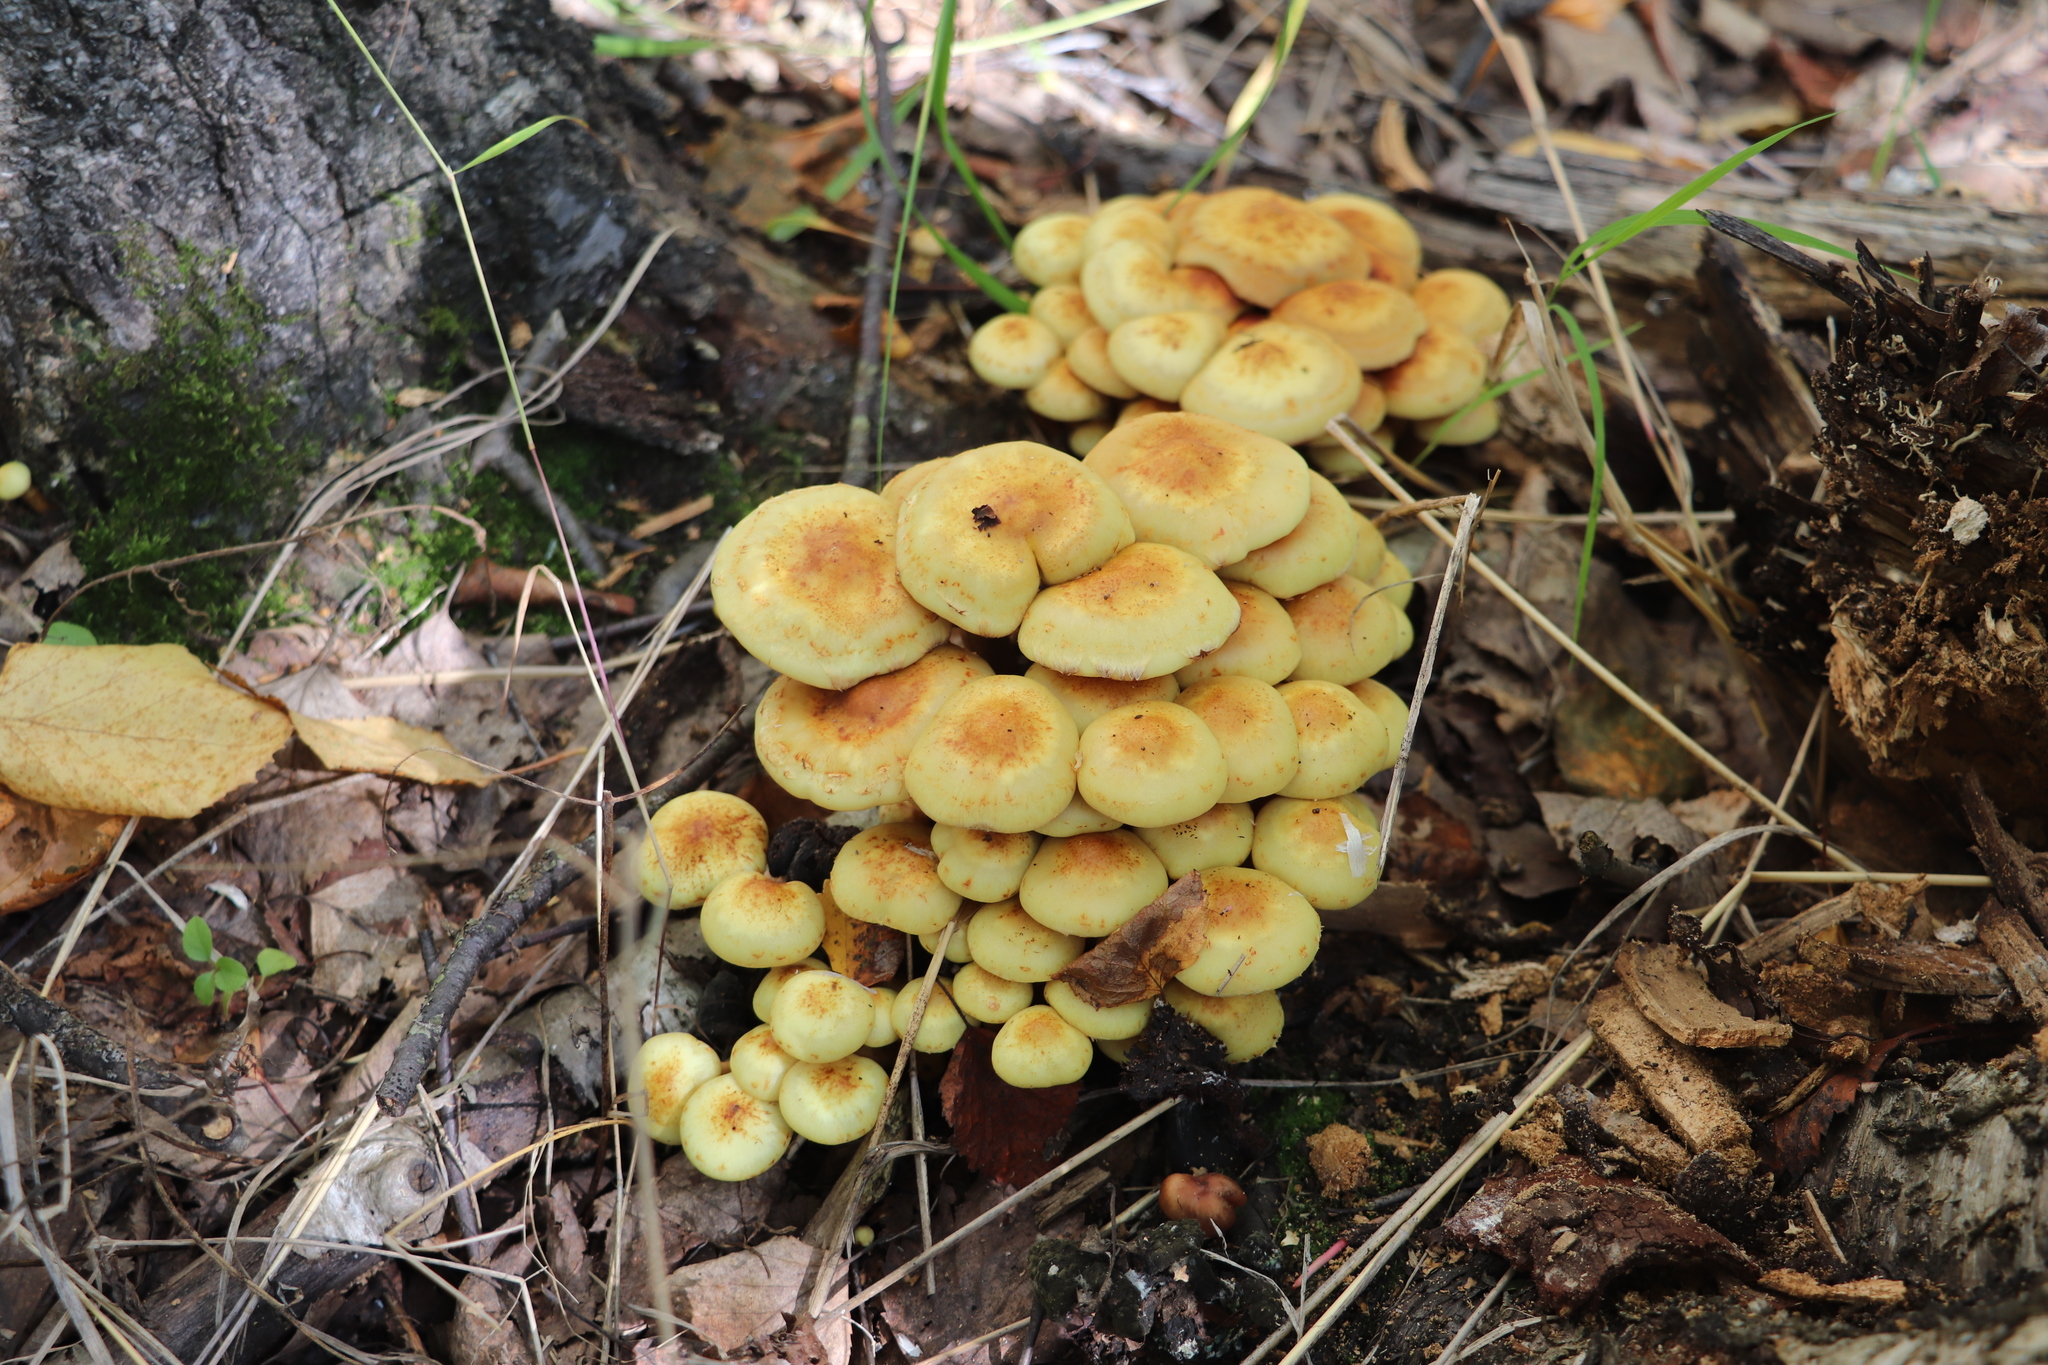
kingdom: Fungi
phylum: Basidiomycota
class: Agaricomycetes
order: Agaricales
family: Hymenogastraceae
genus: Flammula
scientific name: Flammula alnicola
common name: Alder scalycap
